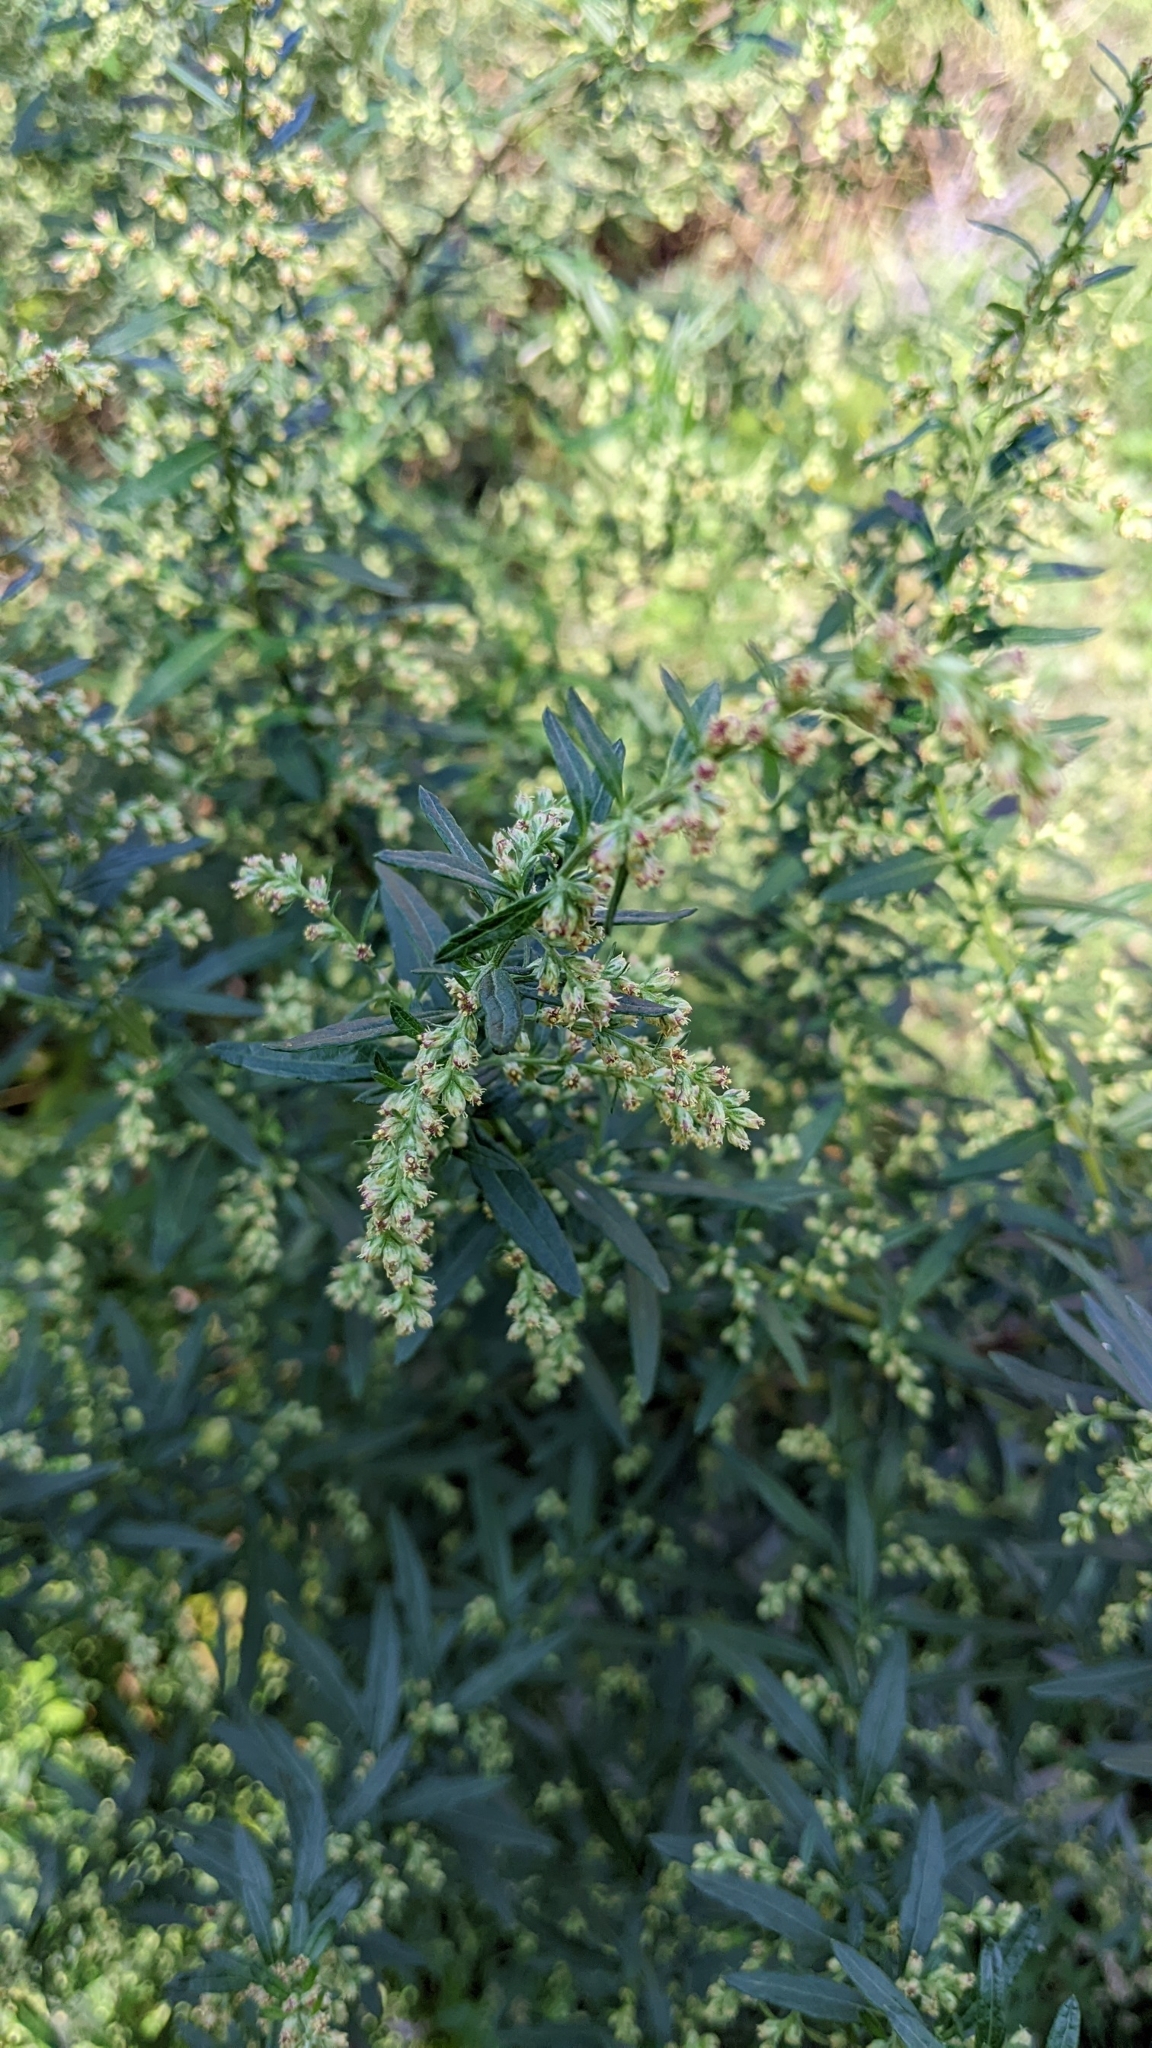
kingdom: Plantae
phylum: Tracheophyta
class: Magnoliopsida
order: Asterales
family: Asteraceae
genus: Artemisia
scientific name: Artemisia vulgaris
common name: Mugwort
